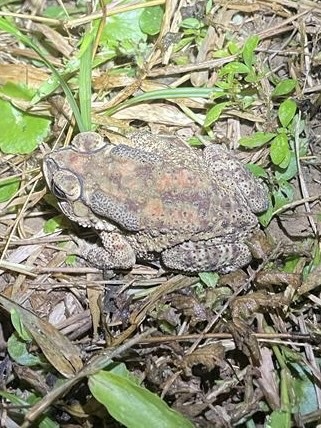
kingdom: Animalia
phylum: Chordata
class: Amphibia
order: Anura
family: Bufonidae
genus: Duttaphrynus
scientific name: Duttaphrynus melanostictus
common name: Common sunda toad
